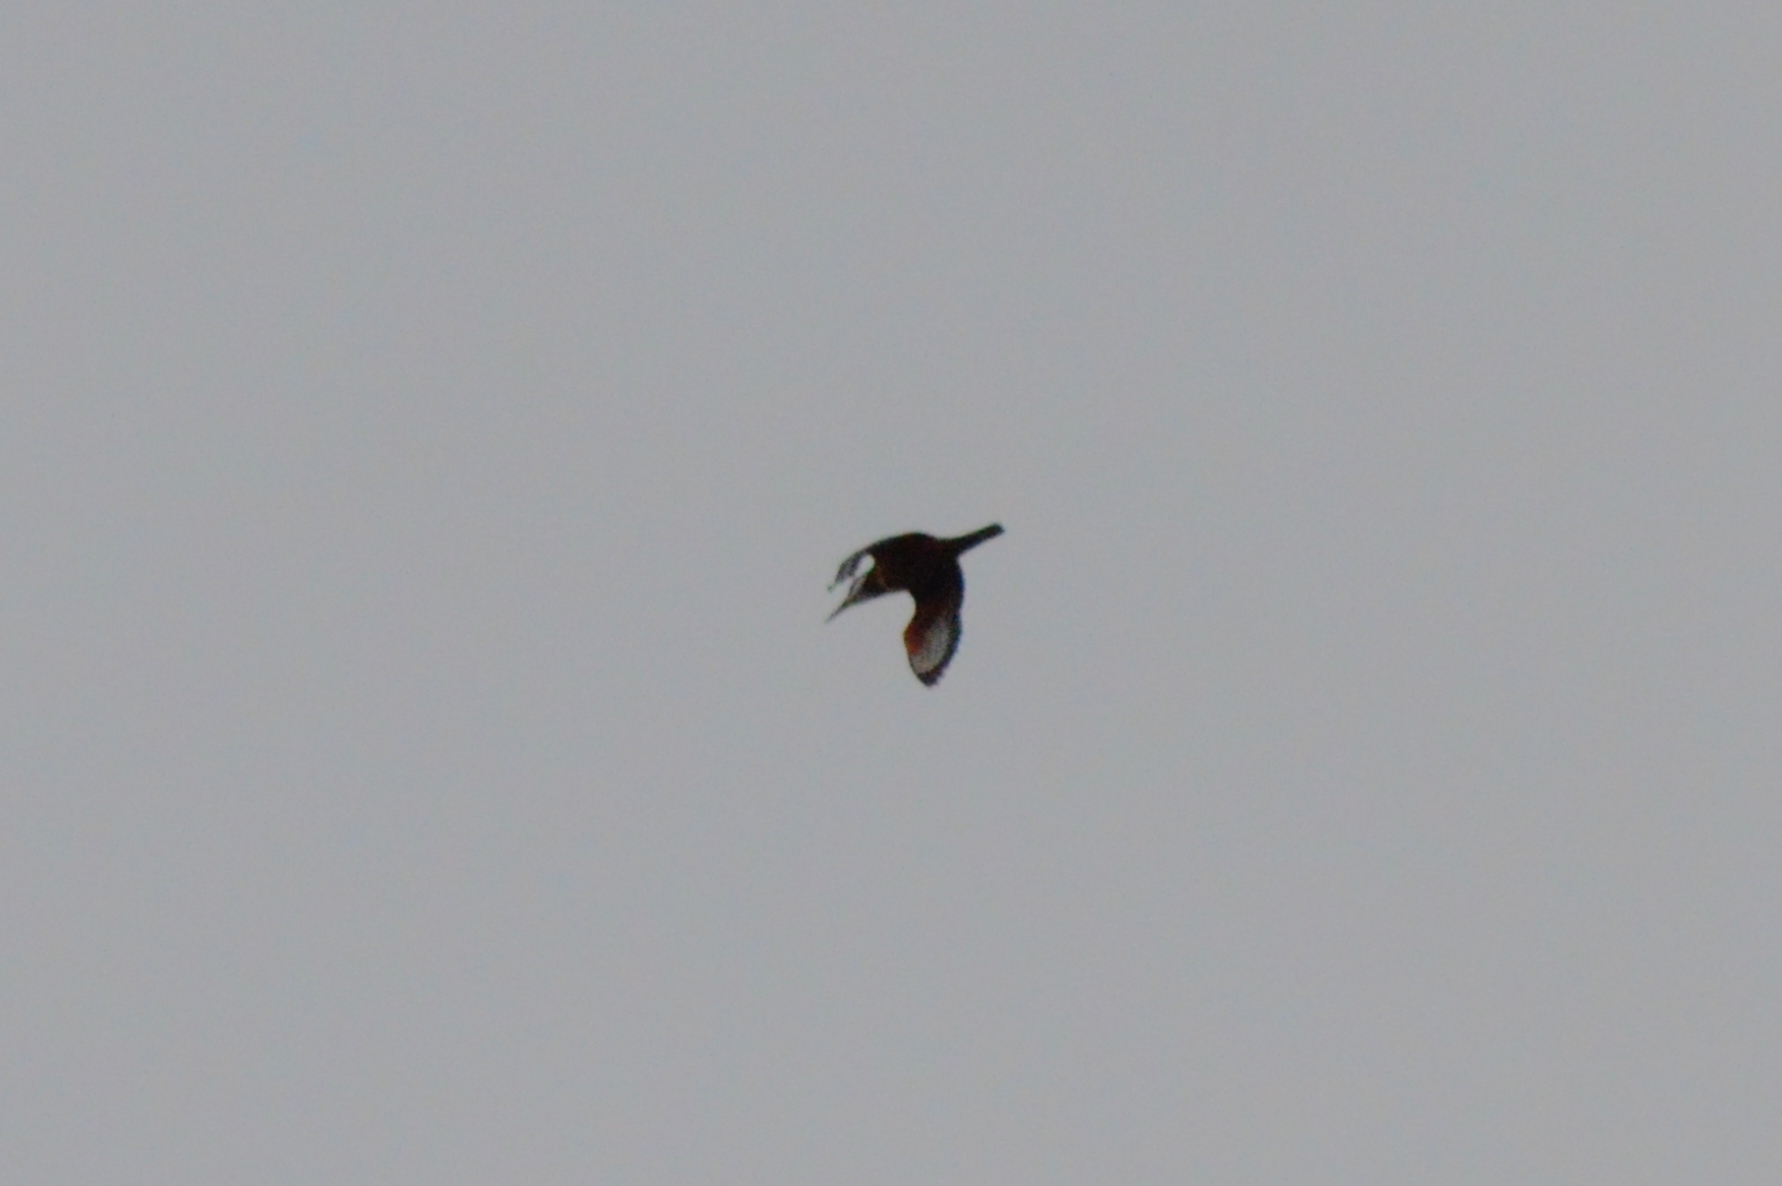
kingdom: Animalia
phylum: Chordata
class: Aves
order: Coraciiformes
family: Alcedinidae
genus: Megaceryle
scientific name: Megaceryle torquata
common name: Ringed kingfisher
